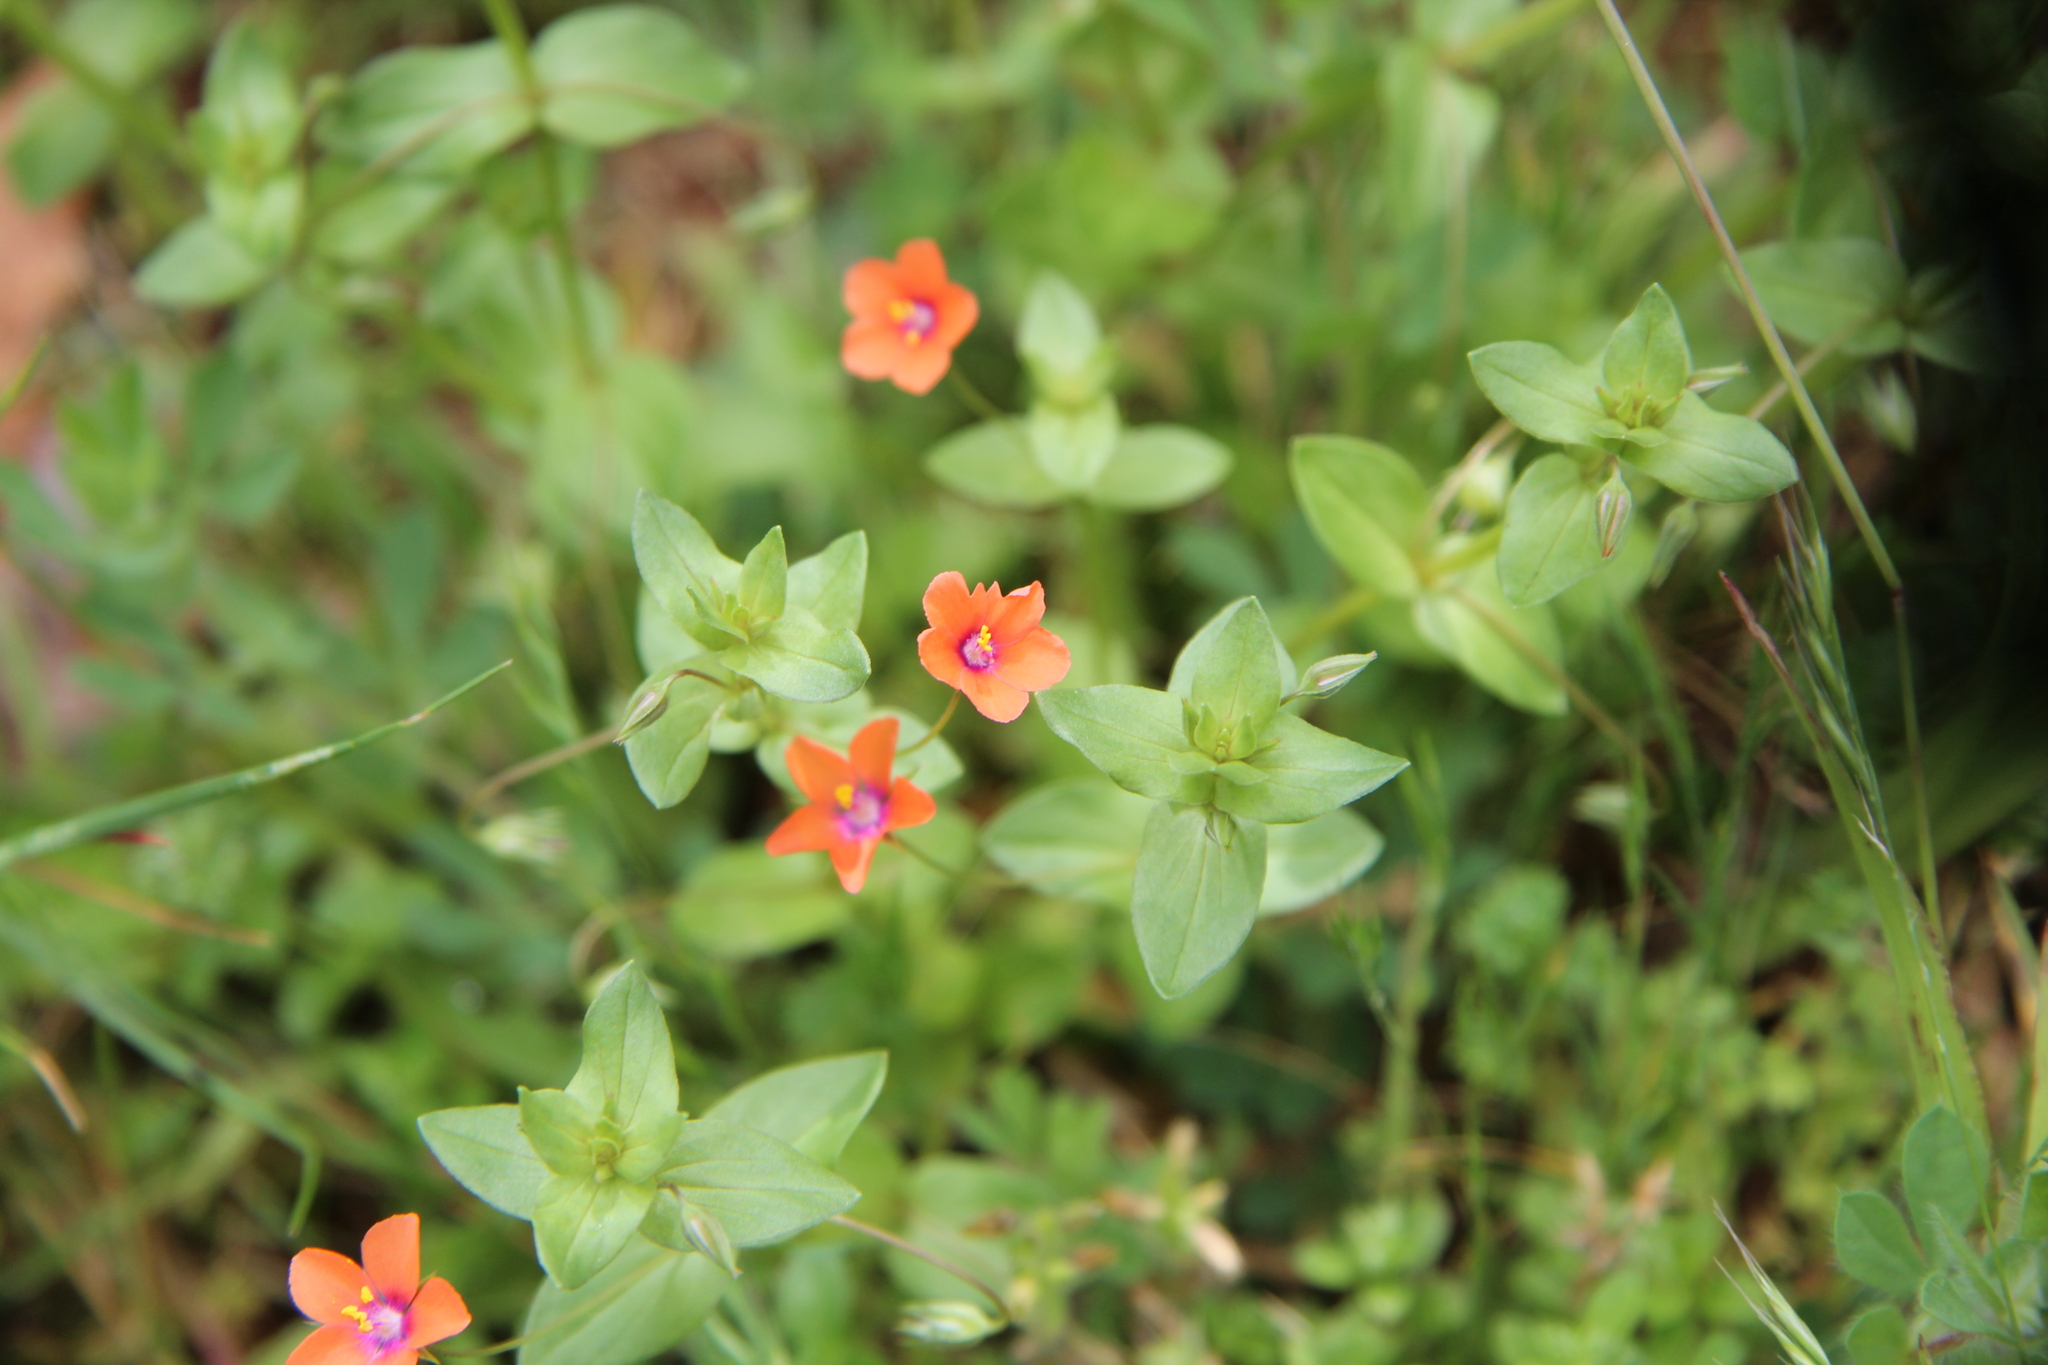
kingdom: Plantae
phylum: Tracheophyta
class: Magnoliopsida
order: Ericales
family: Primulaceae
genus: Lysimachia
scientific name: Lysimachia arvensis
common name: Scarlet pimpernel
